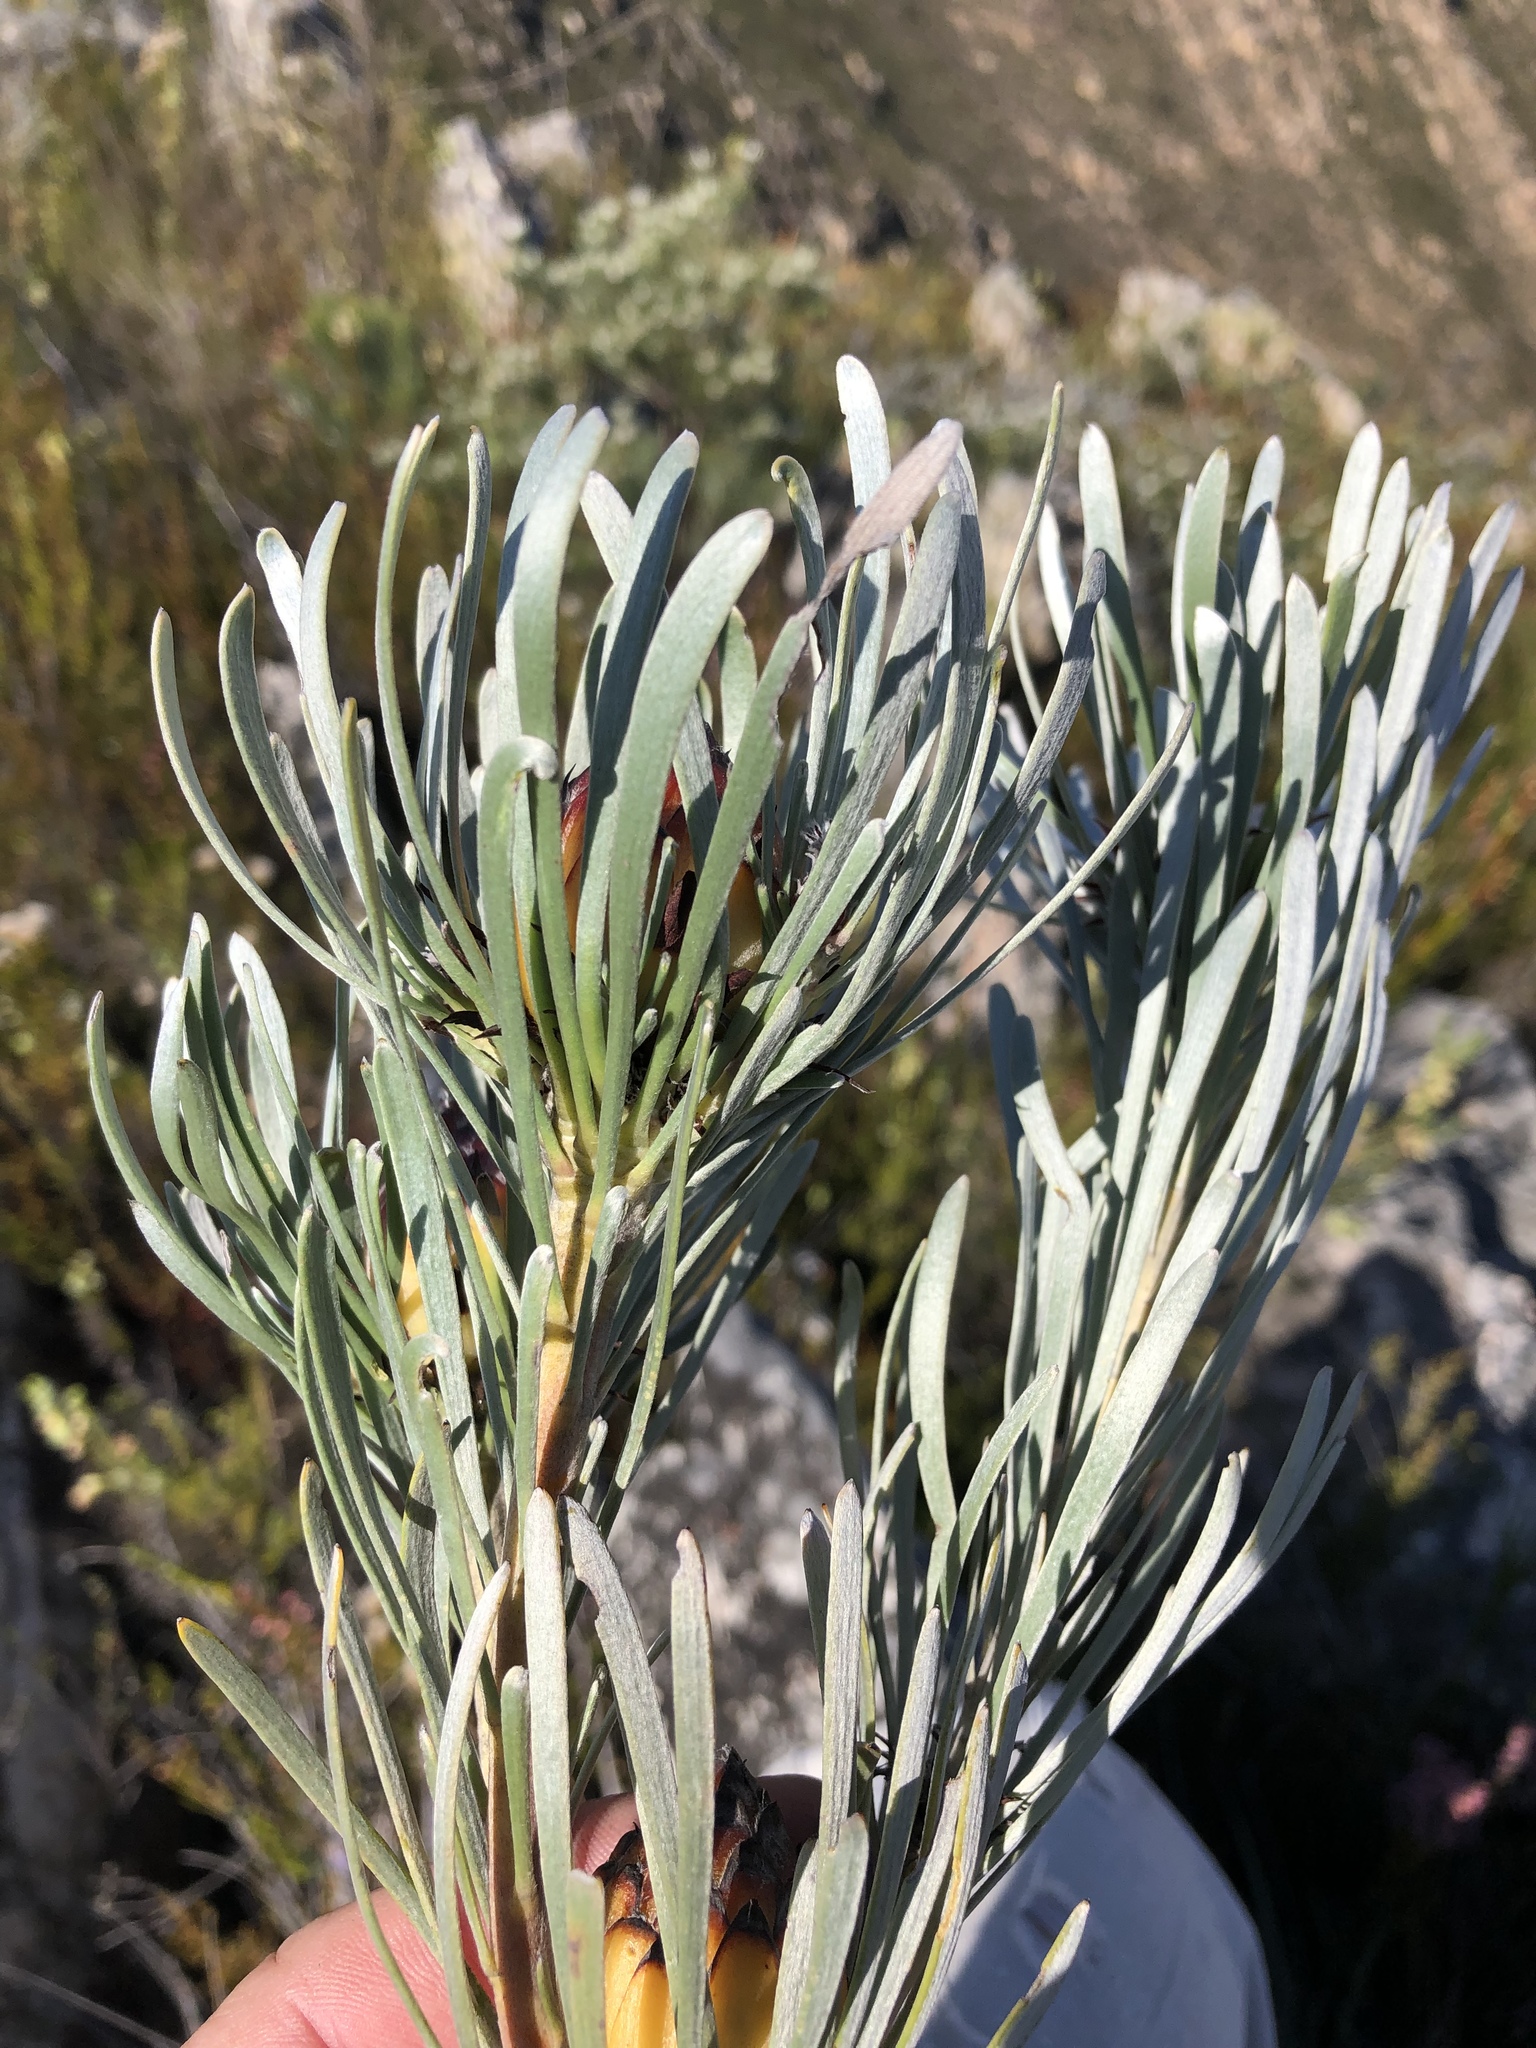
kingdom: Plantae
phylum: Tracheophyta
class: Magnoliopsida
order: Proteales
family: Proteaceae
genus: Leucadendron
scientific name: Leucadendron album
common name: Linear-leaf conebush
